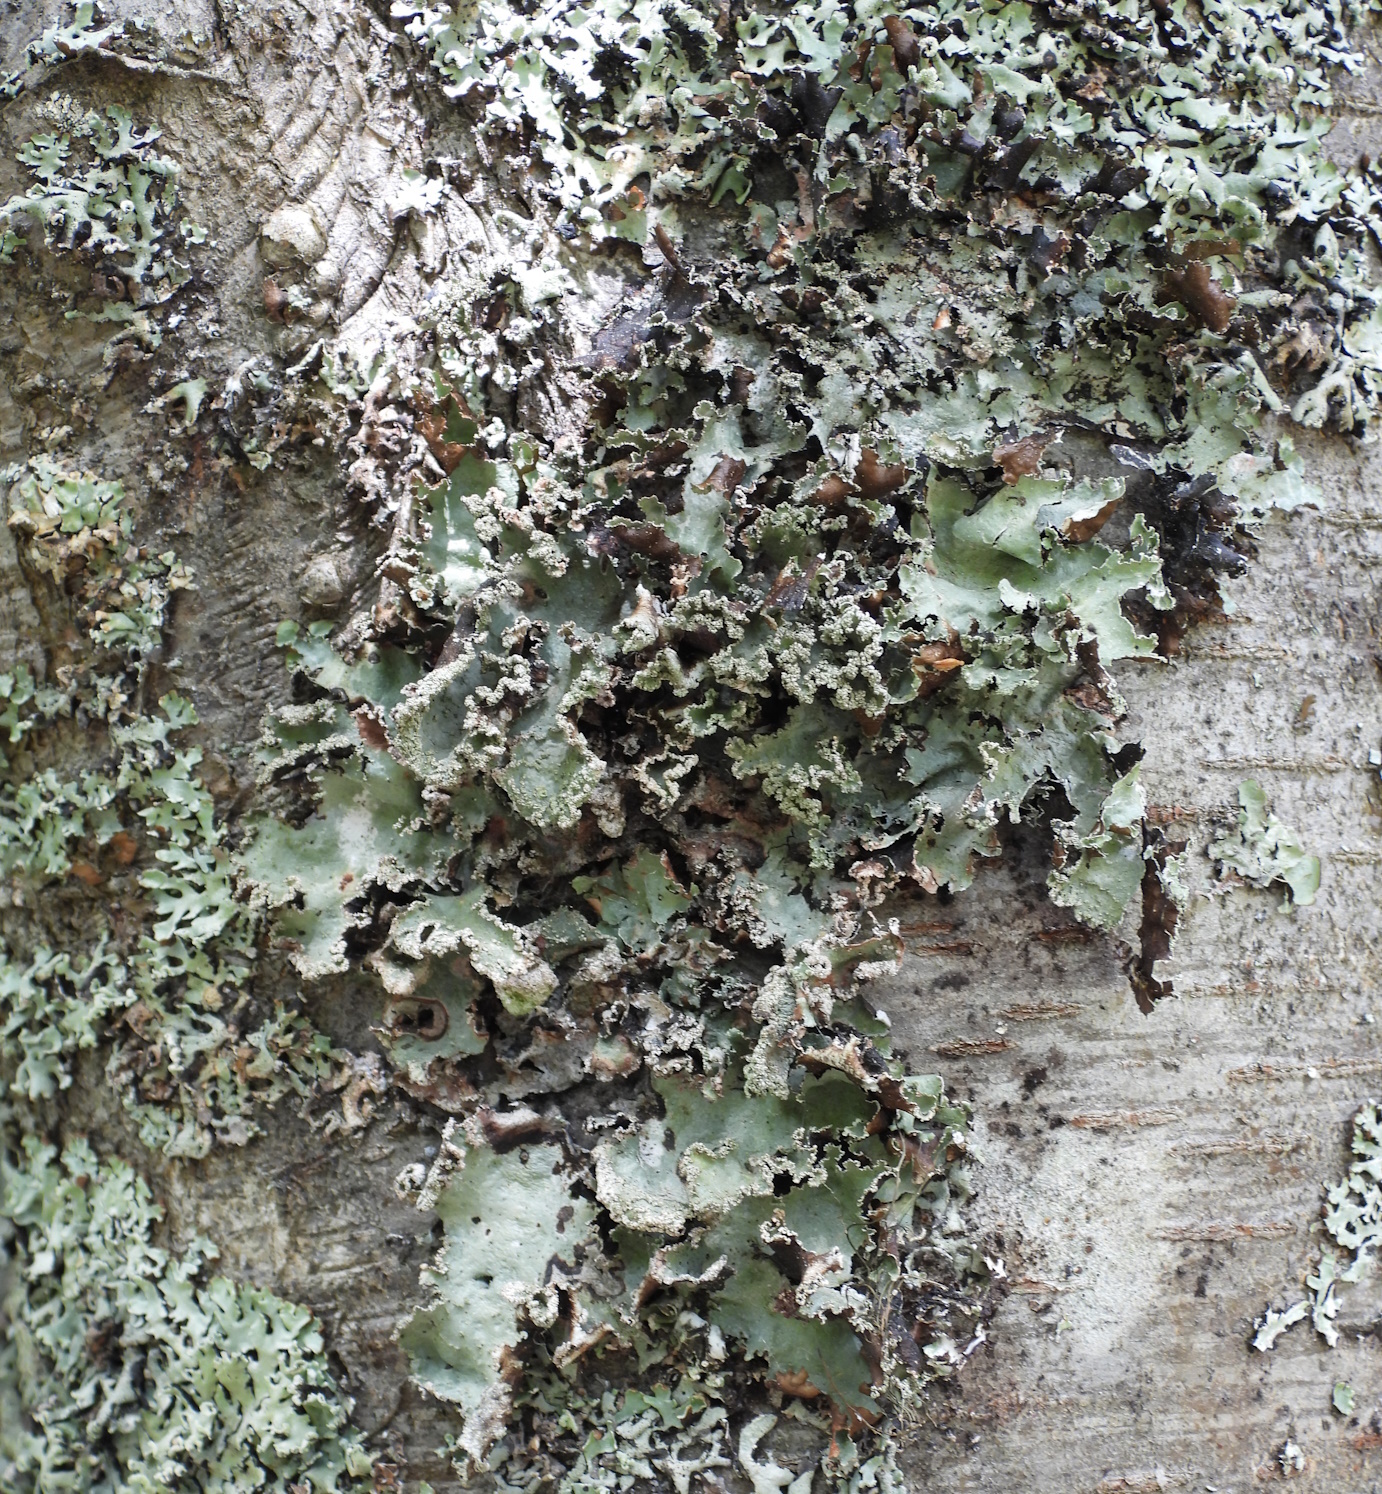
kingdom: Fungi
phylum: Ascomycota
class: Lecanoromycetes
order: Lecanorales
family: Parmeliaceae
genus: Platismatia
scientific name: Platismatia glauca
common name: Varied rag lichen
